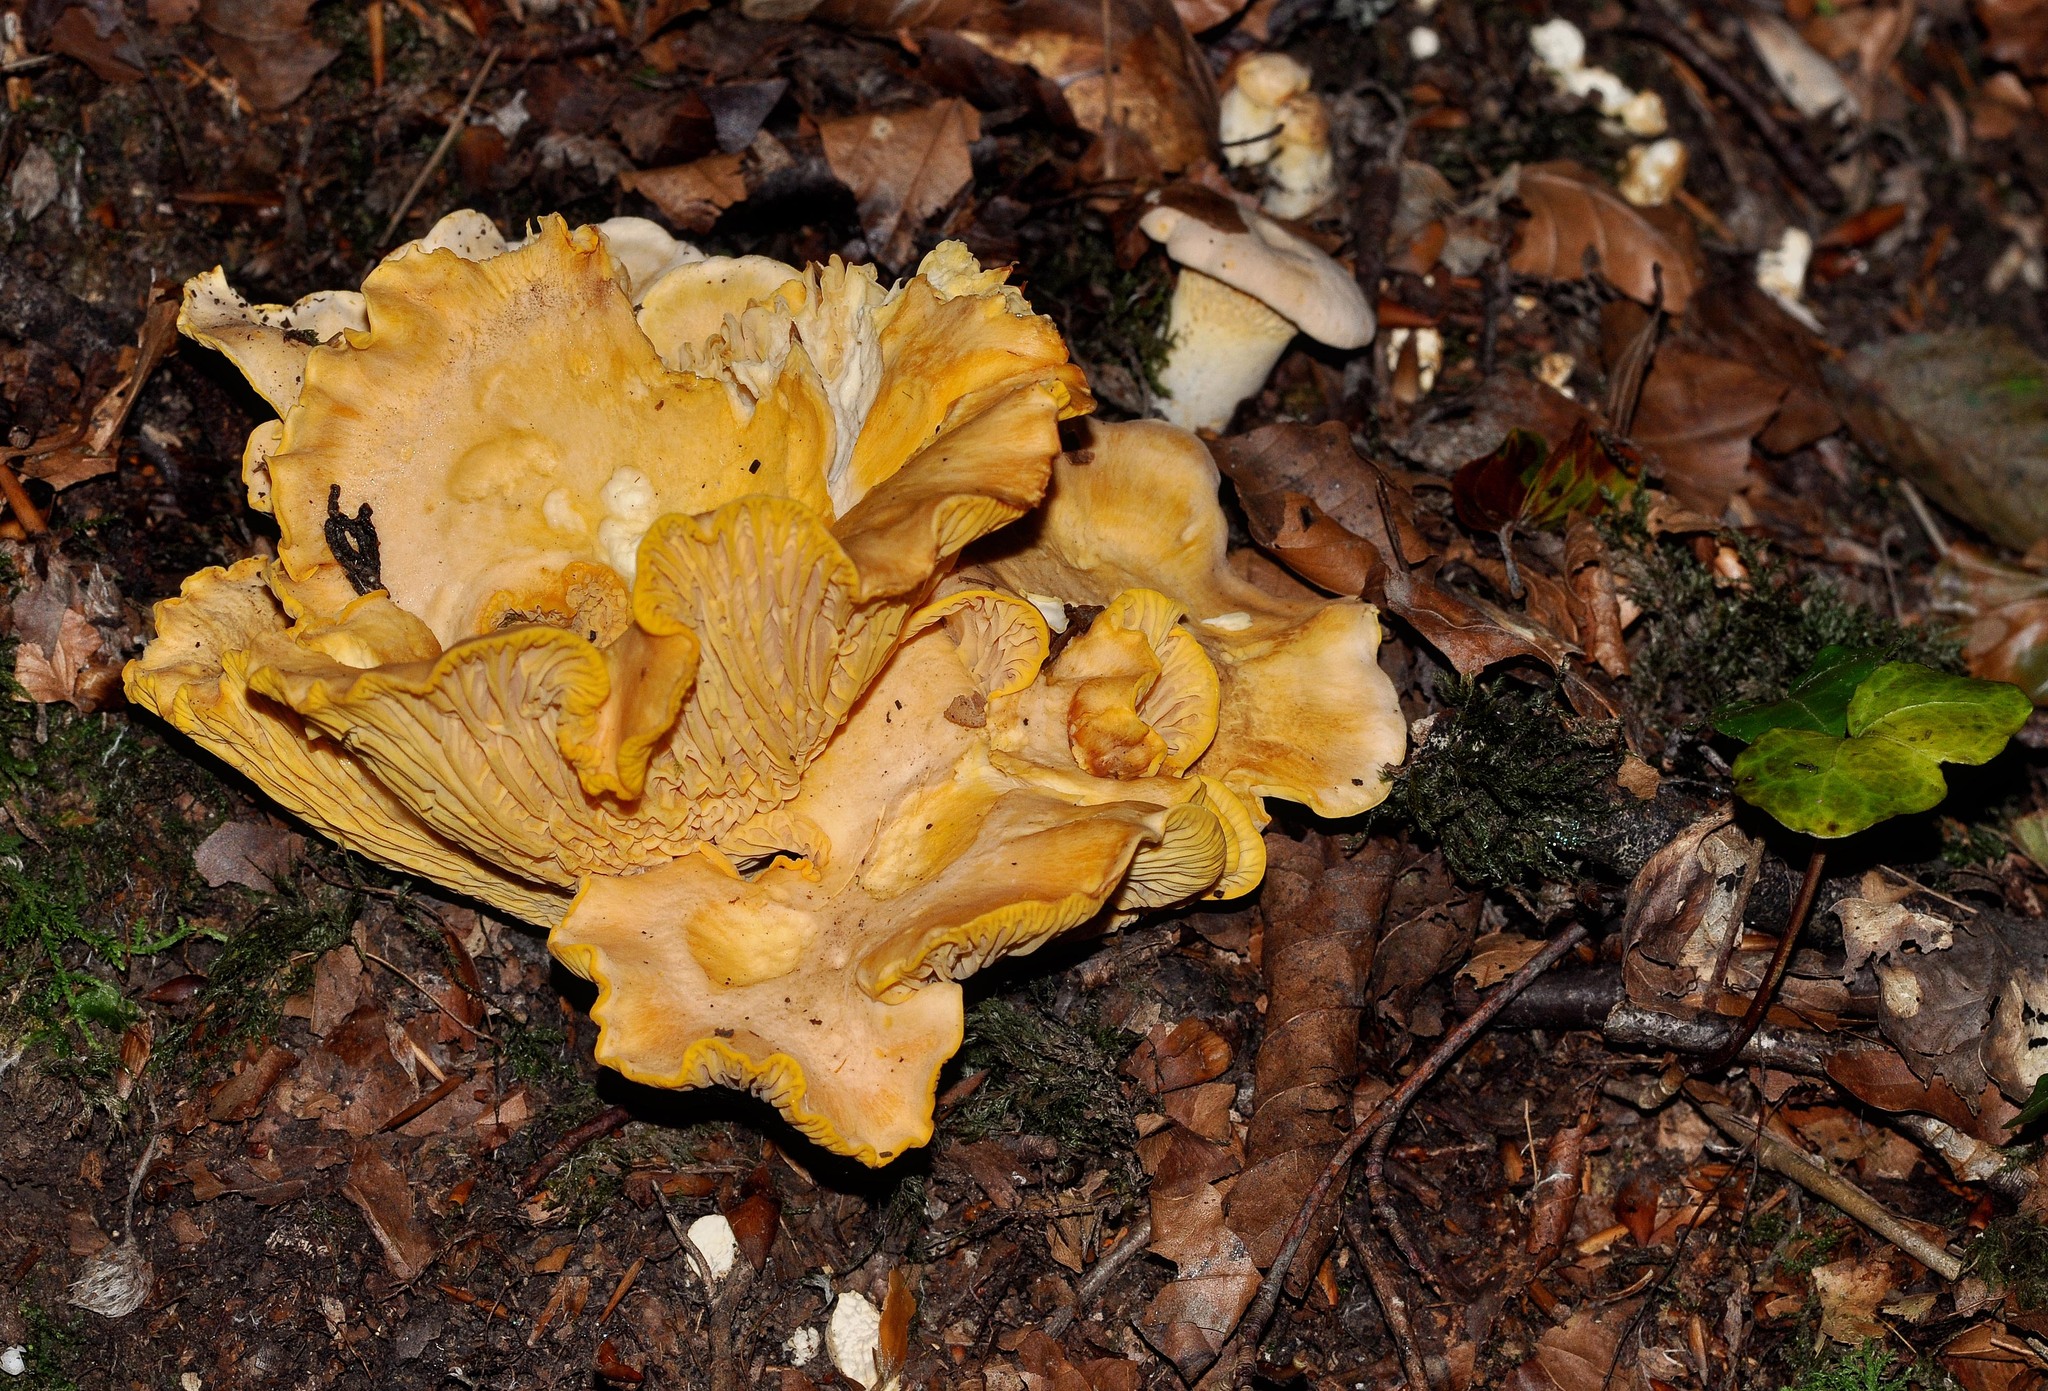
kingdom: Fungi
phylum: Basidiomycota
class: Agaricomycetes
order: Cantharellales
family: Hydnaceae
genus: Cantharellus
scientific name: Cantharellus cibarius
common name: Chanterelle
